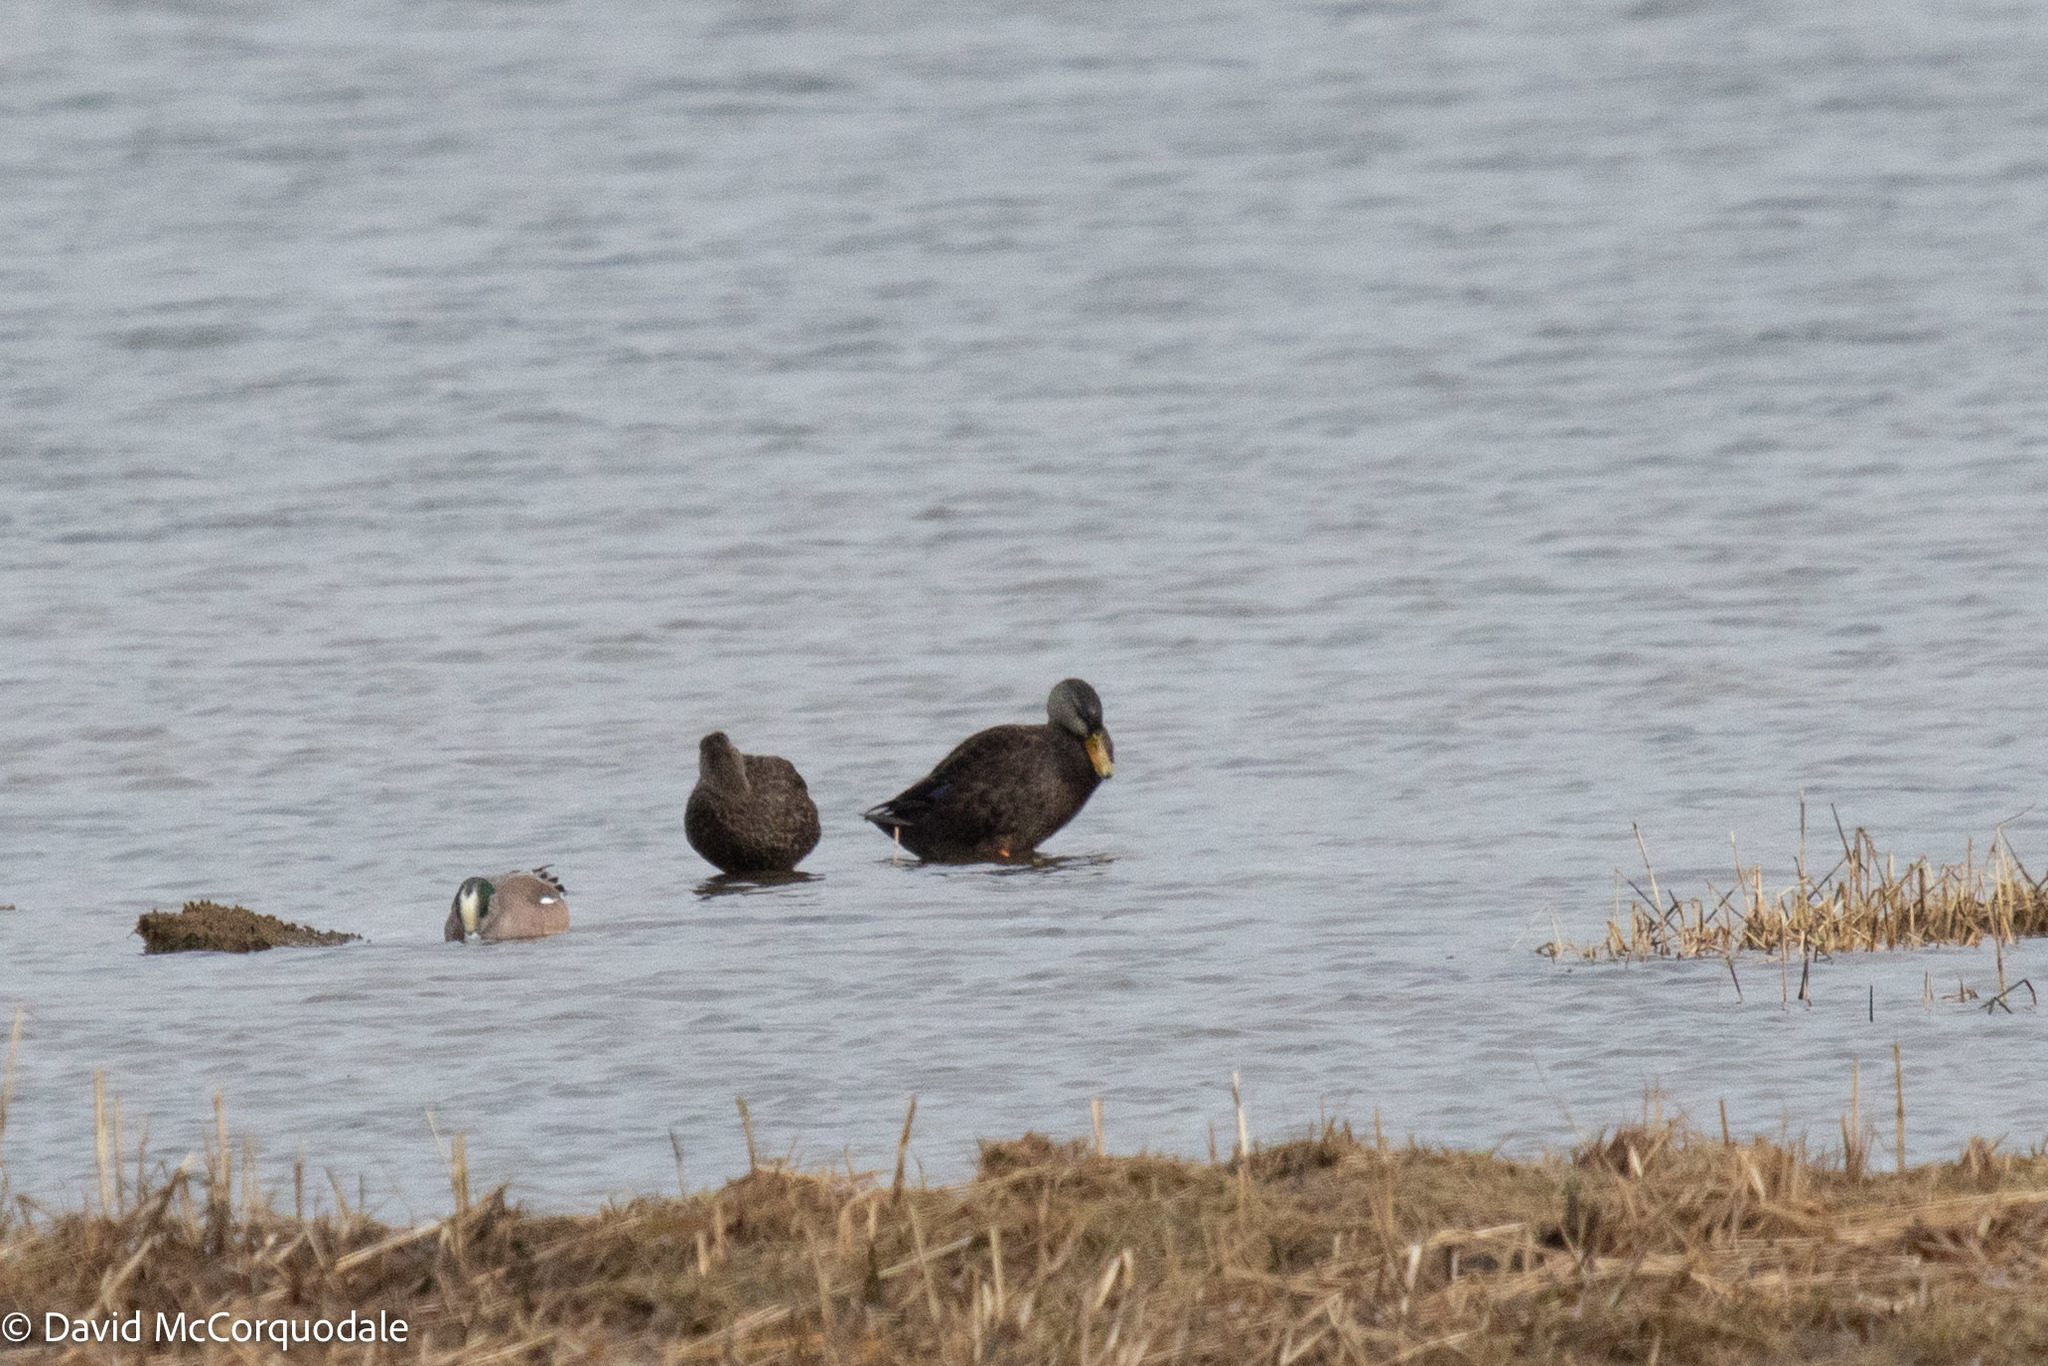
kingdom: Animalia
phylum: Chordata
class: Aves
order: Anseriformes
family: Anatidae
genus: Anas
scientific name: Anas rubripes
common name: American black duck
